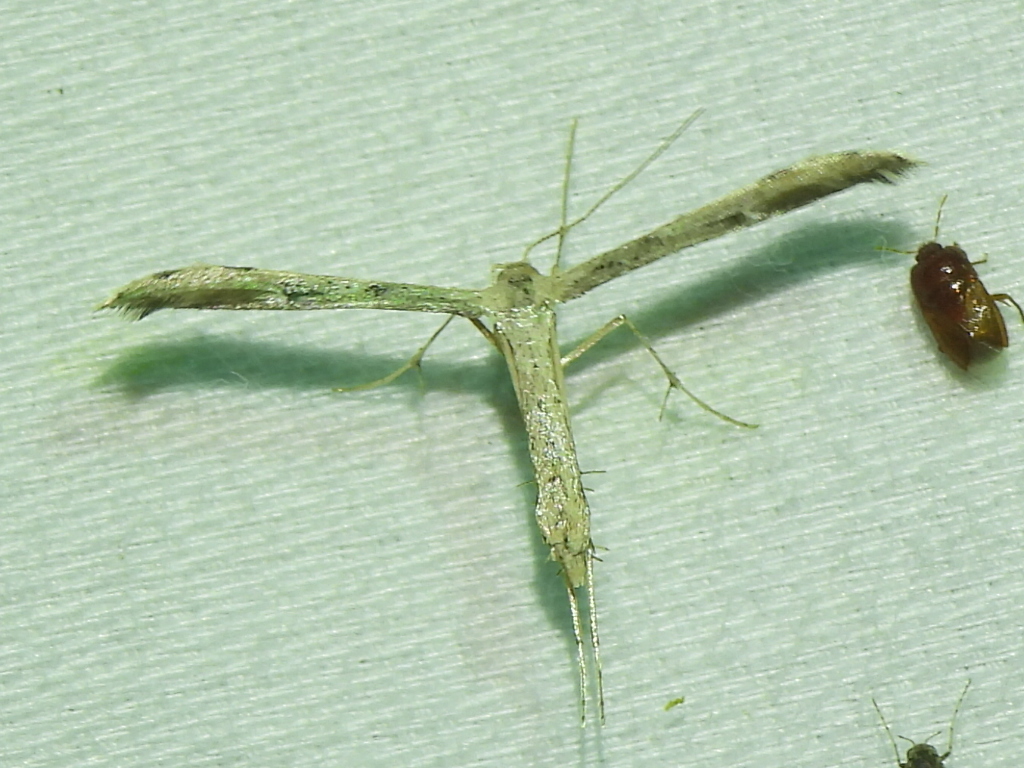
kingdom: Animalia
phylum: Arthropoda
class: Insecta
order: Lepidoptera
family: Pterophoridae
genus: Adaina
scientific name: Adaina ambrosiae
